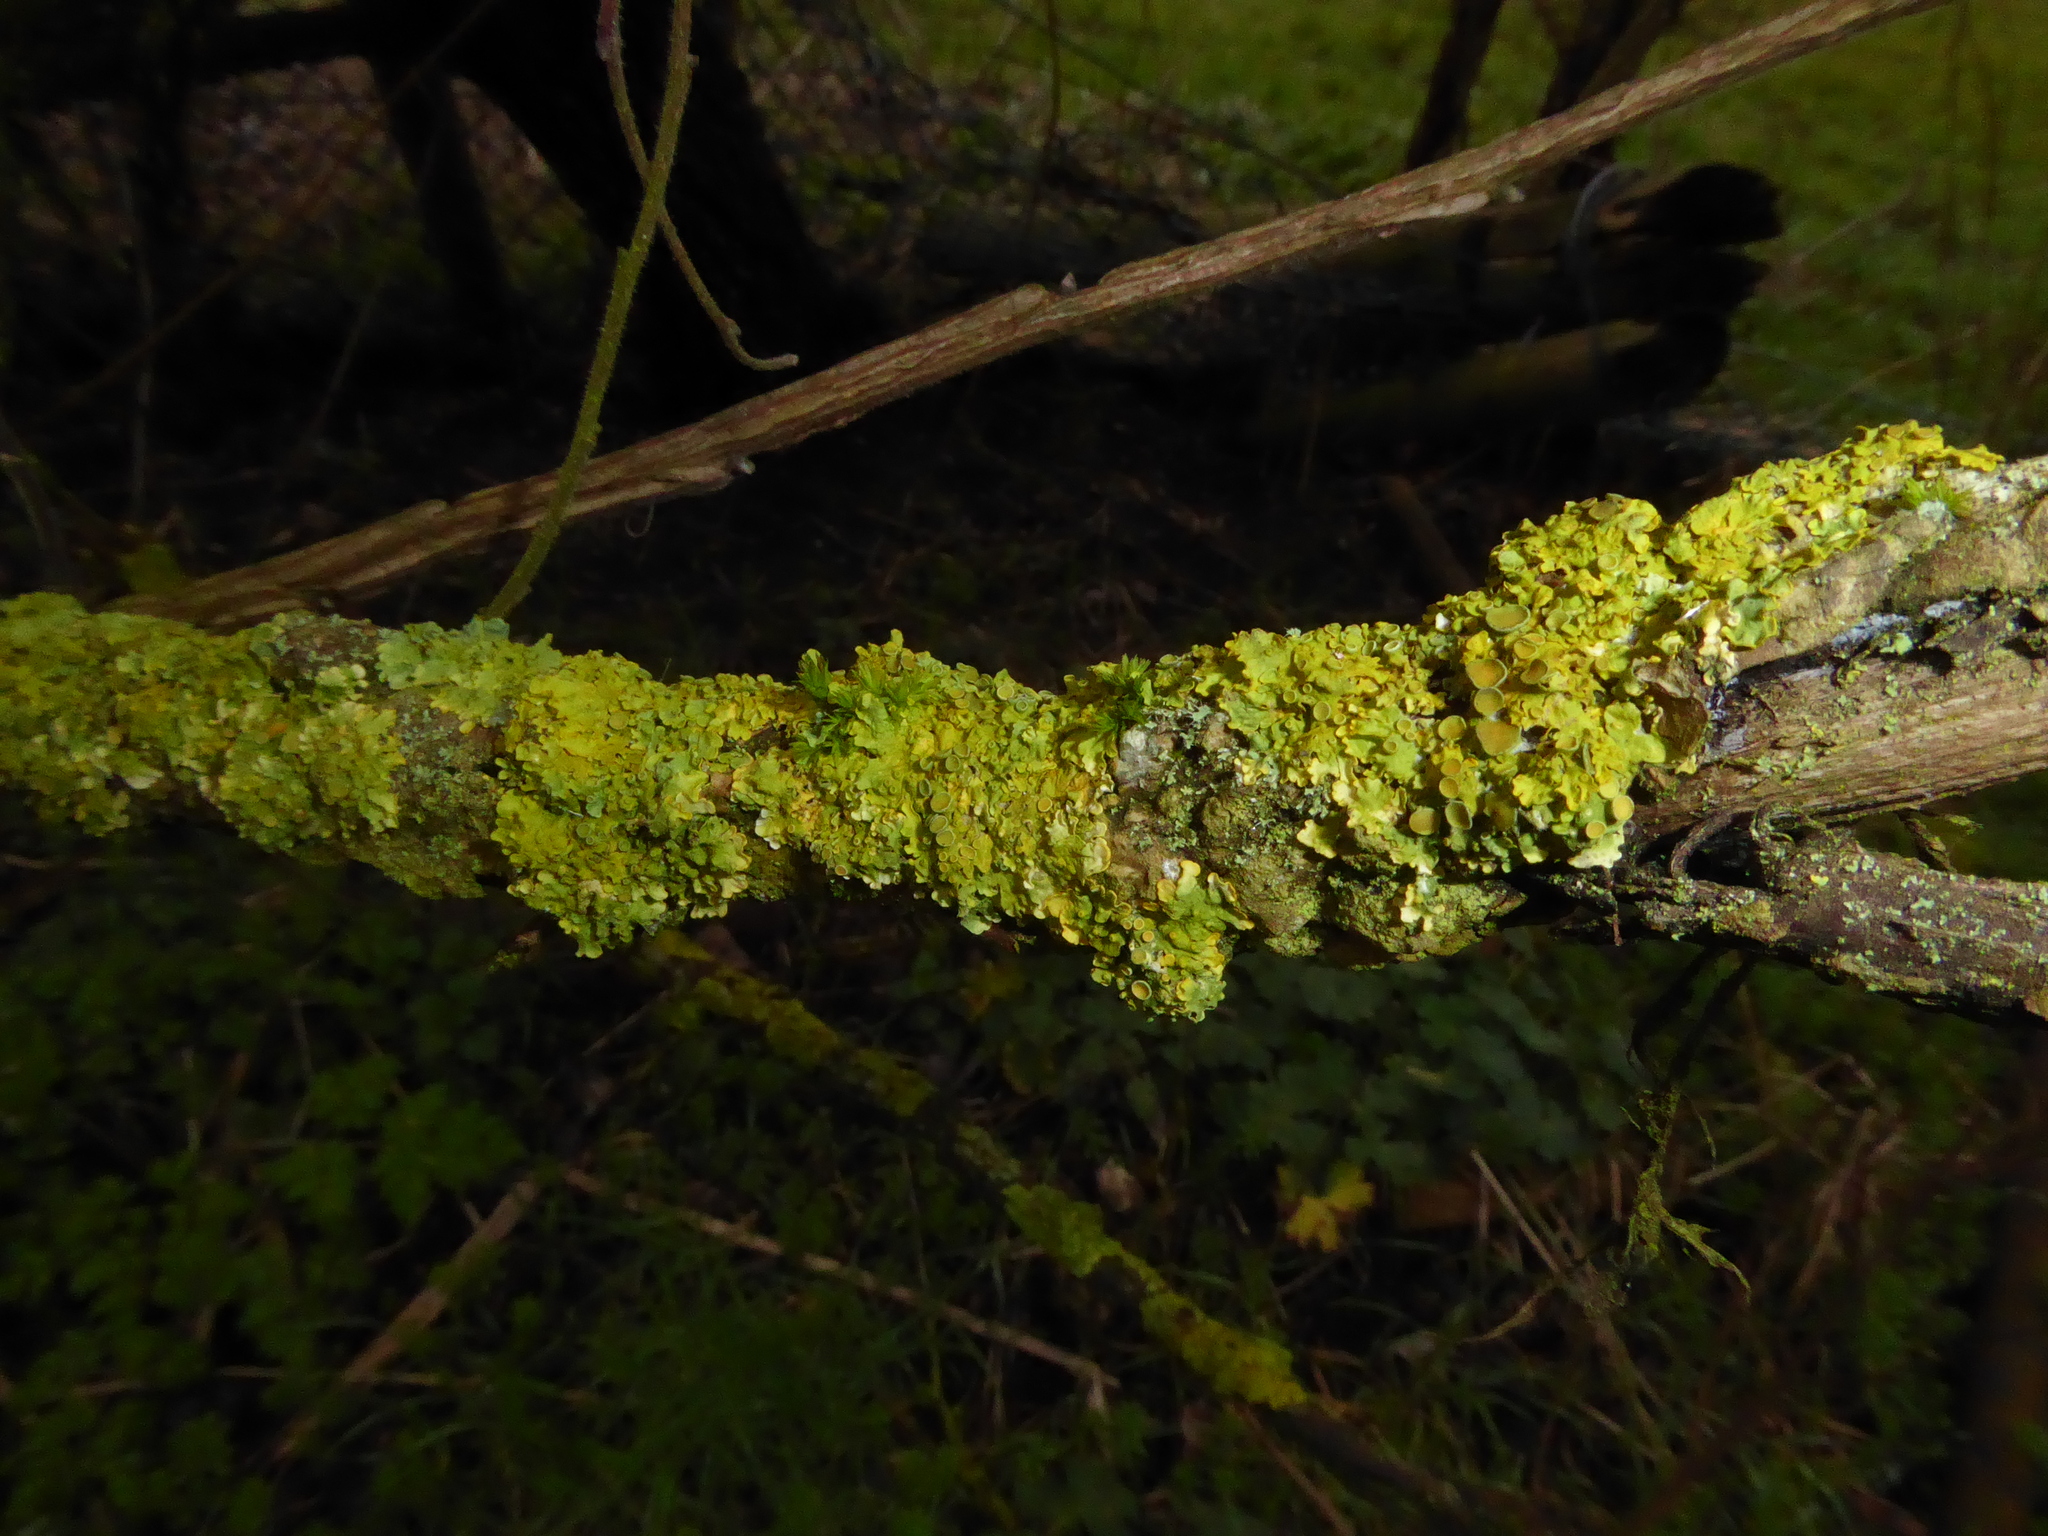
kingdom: Fungi
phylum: Ascomycota
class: Lecanoromycetes
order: Teloschistales
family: Teloschistaceae
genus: Xanthoria
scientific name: Xanthoria parietina
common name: Common orange lichen
